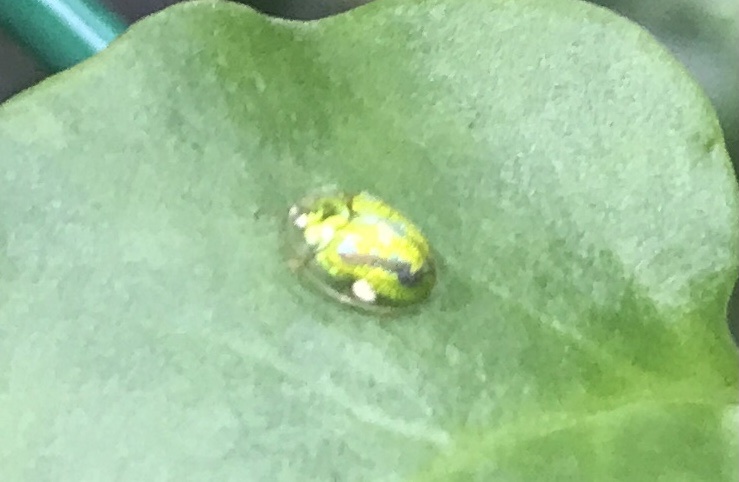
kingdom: Animalia
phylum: Arthropoda
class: Insecta
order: Coleoptera
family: Chrysomelidae
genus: Cassida
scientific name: Cassida circumdata
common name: Tortoise beetle
